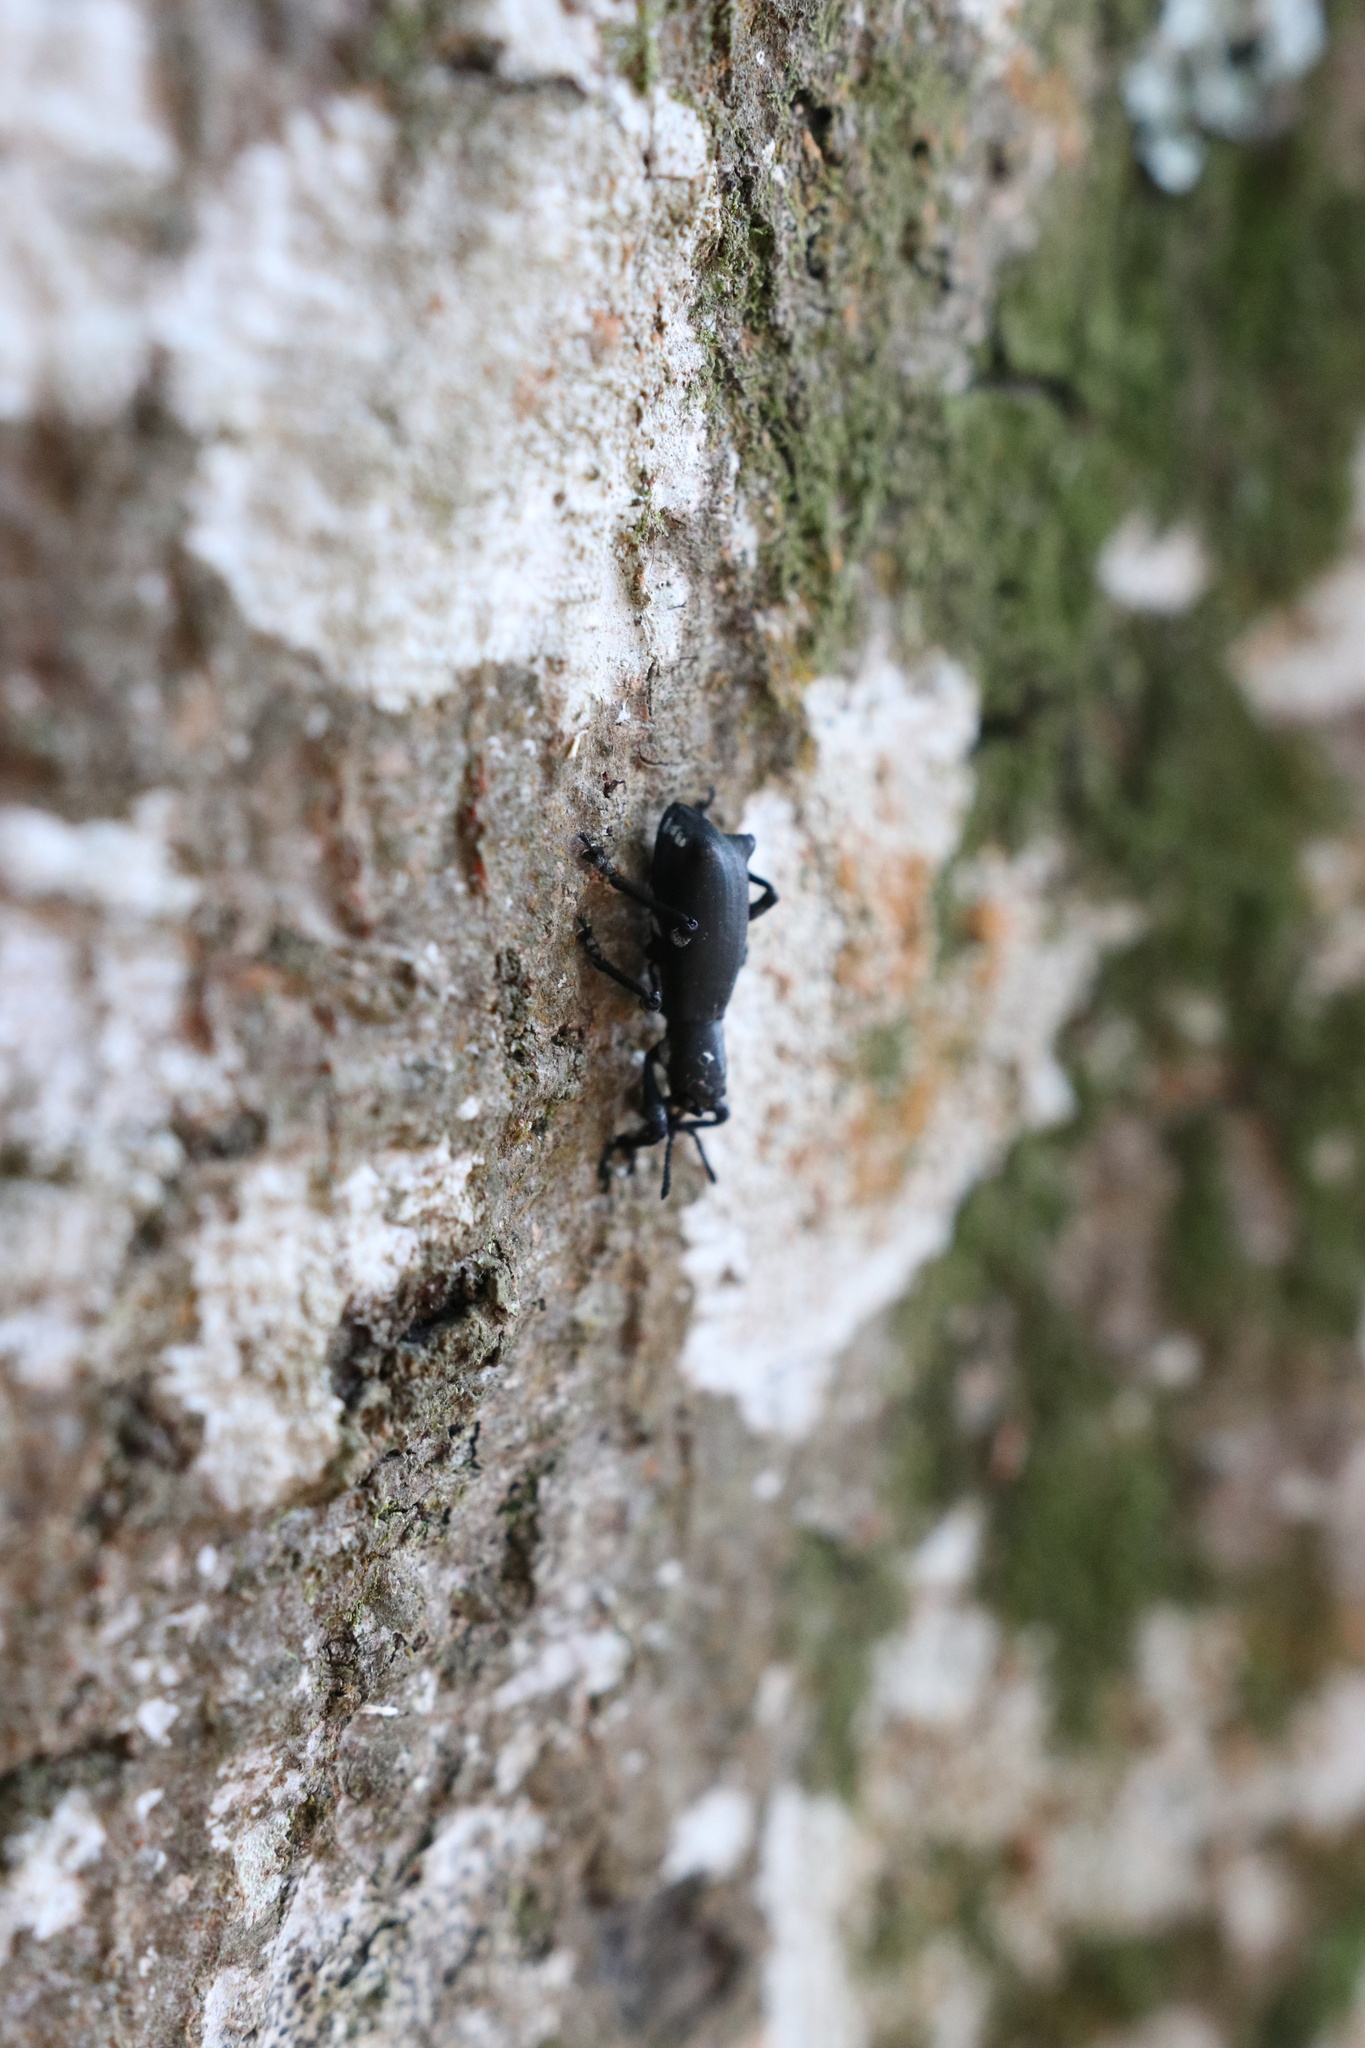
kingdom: Animalia
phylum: Arthropoda
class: Insecta
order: Coleoptera
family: Curculionidae
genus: Aegorhinus
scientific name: Aegorhinus
